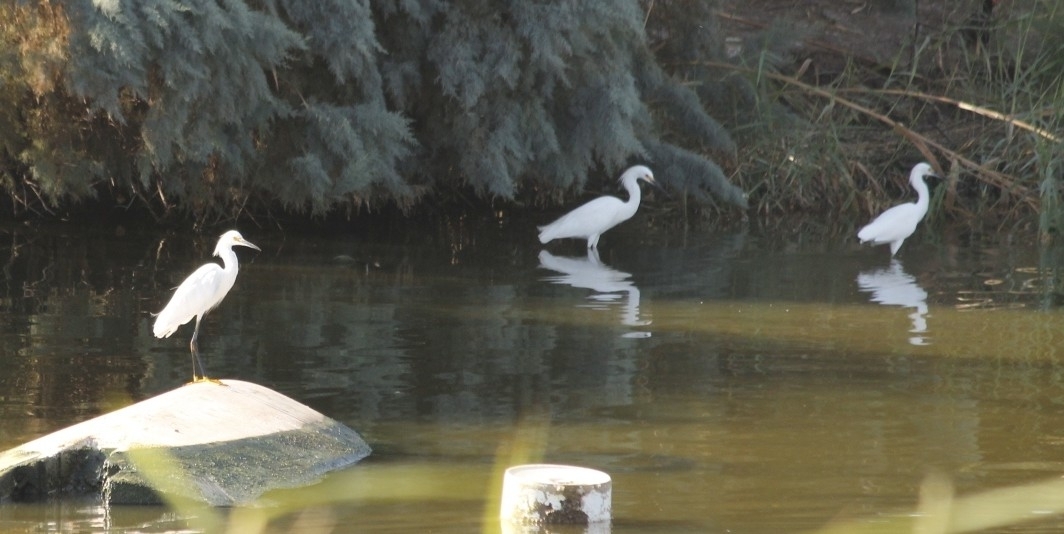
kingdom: Animalia
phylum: Chordata
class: Aves
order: Pelecaniformes
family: Ardeidae
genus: Egretta
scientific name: Egretta thula
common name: Snowy egret
